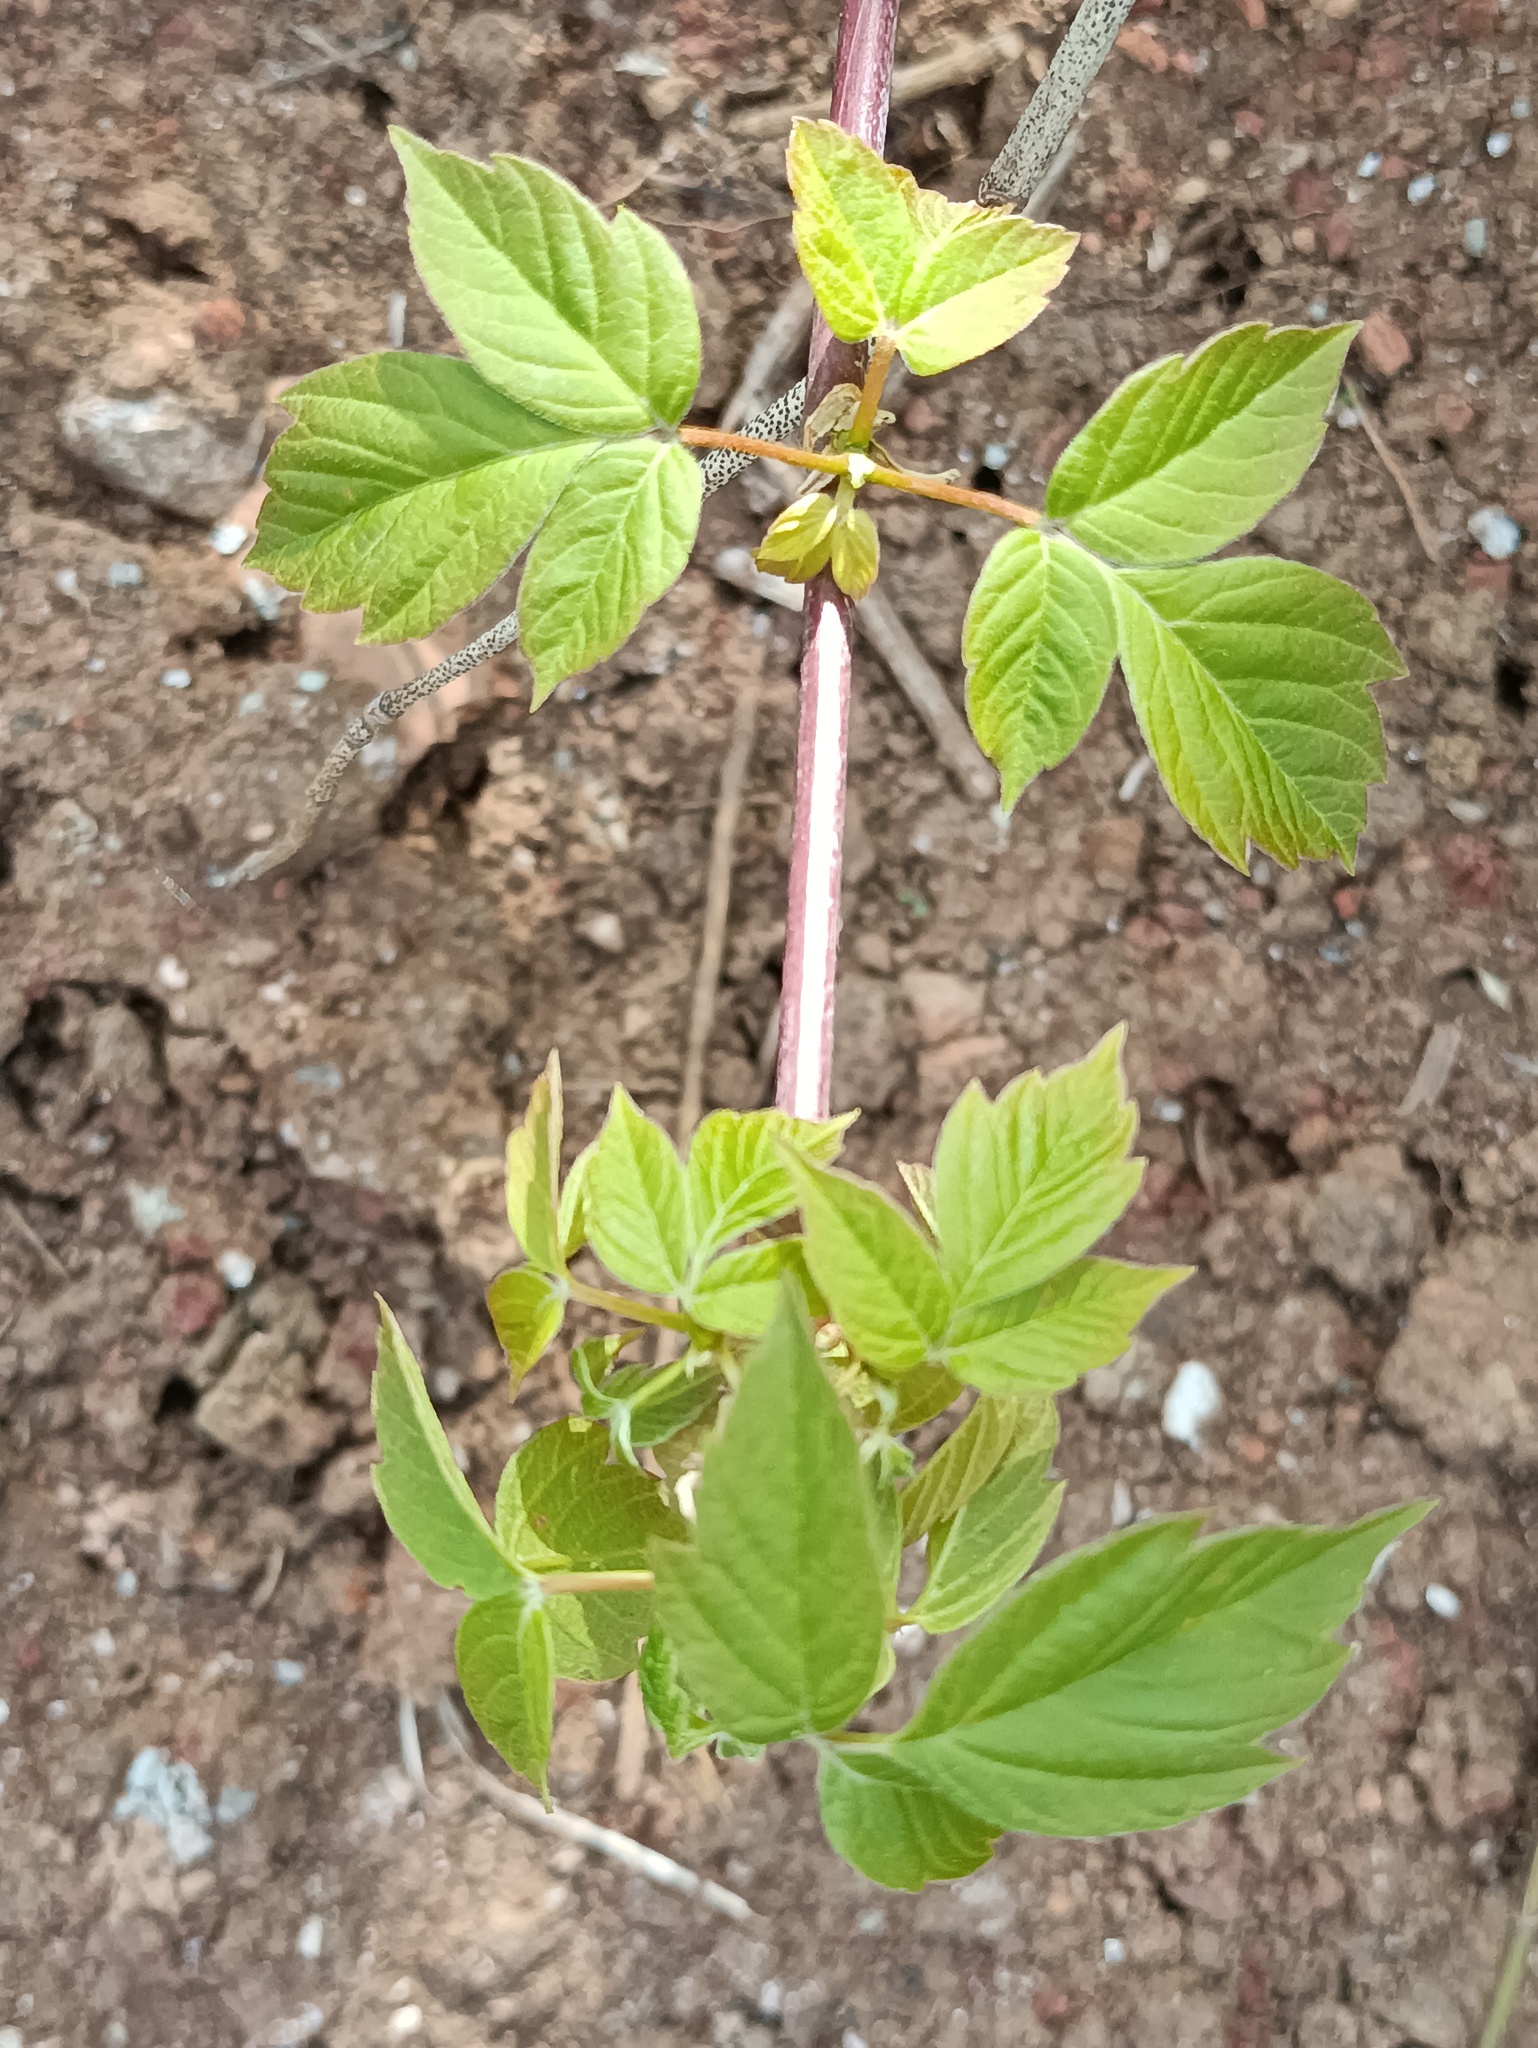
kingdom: Plantae
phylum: Tracheophyta
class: Magnoliopsida
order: Sapindales
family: Sapindaceae
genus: Acer
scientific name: Acer negundo
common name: Ashleaf maple
